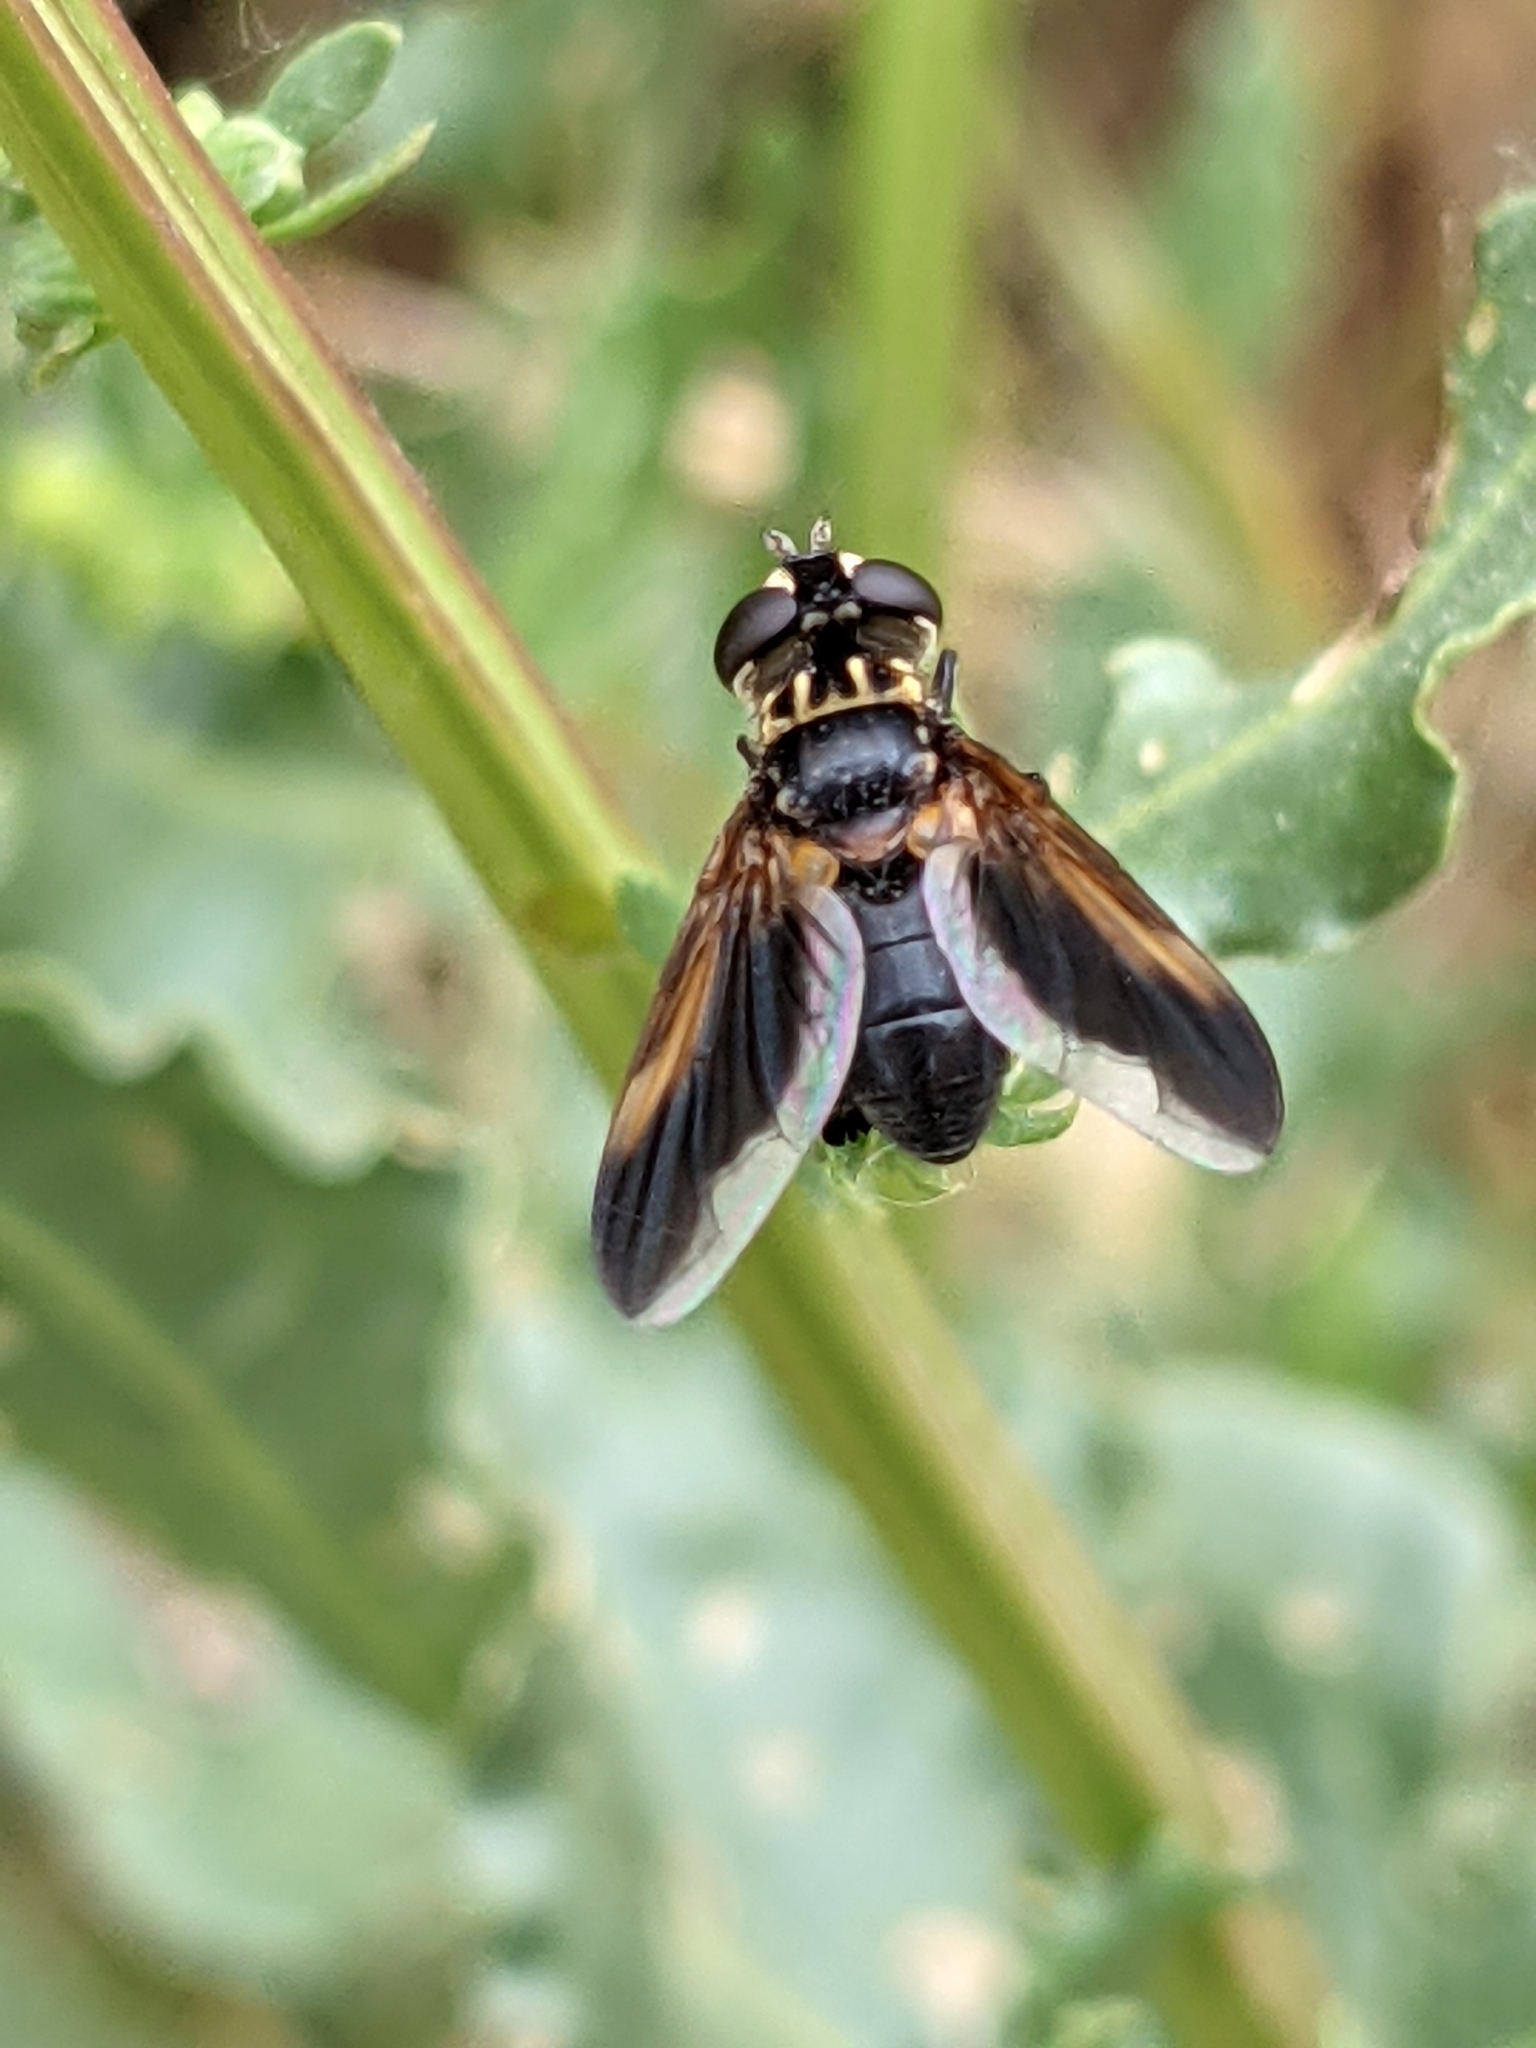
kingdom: Animalia
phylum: Arthropoda
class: Insecta
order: Diptera
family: Tachinidae
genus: Trichopoda
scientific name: Trichopoda pictipennis
